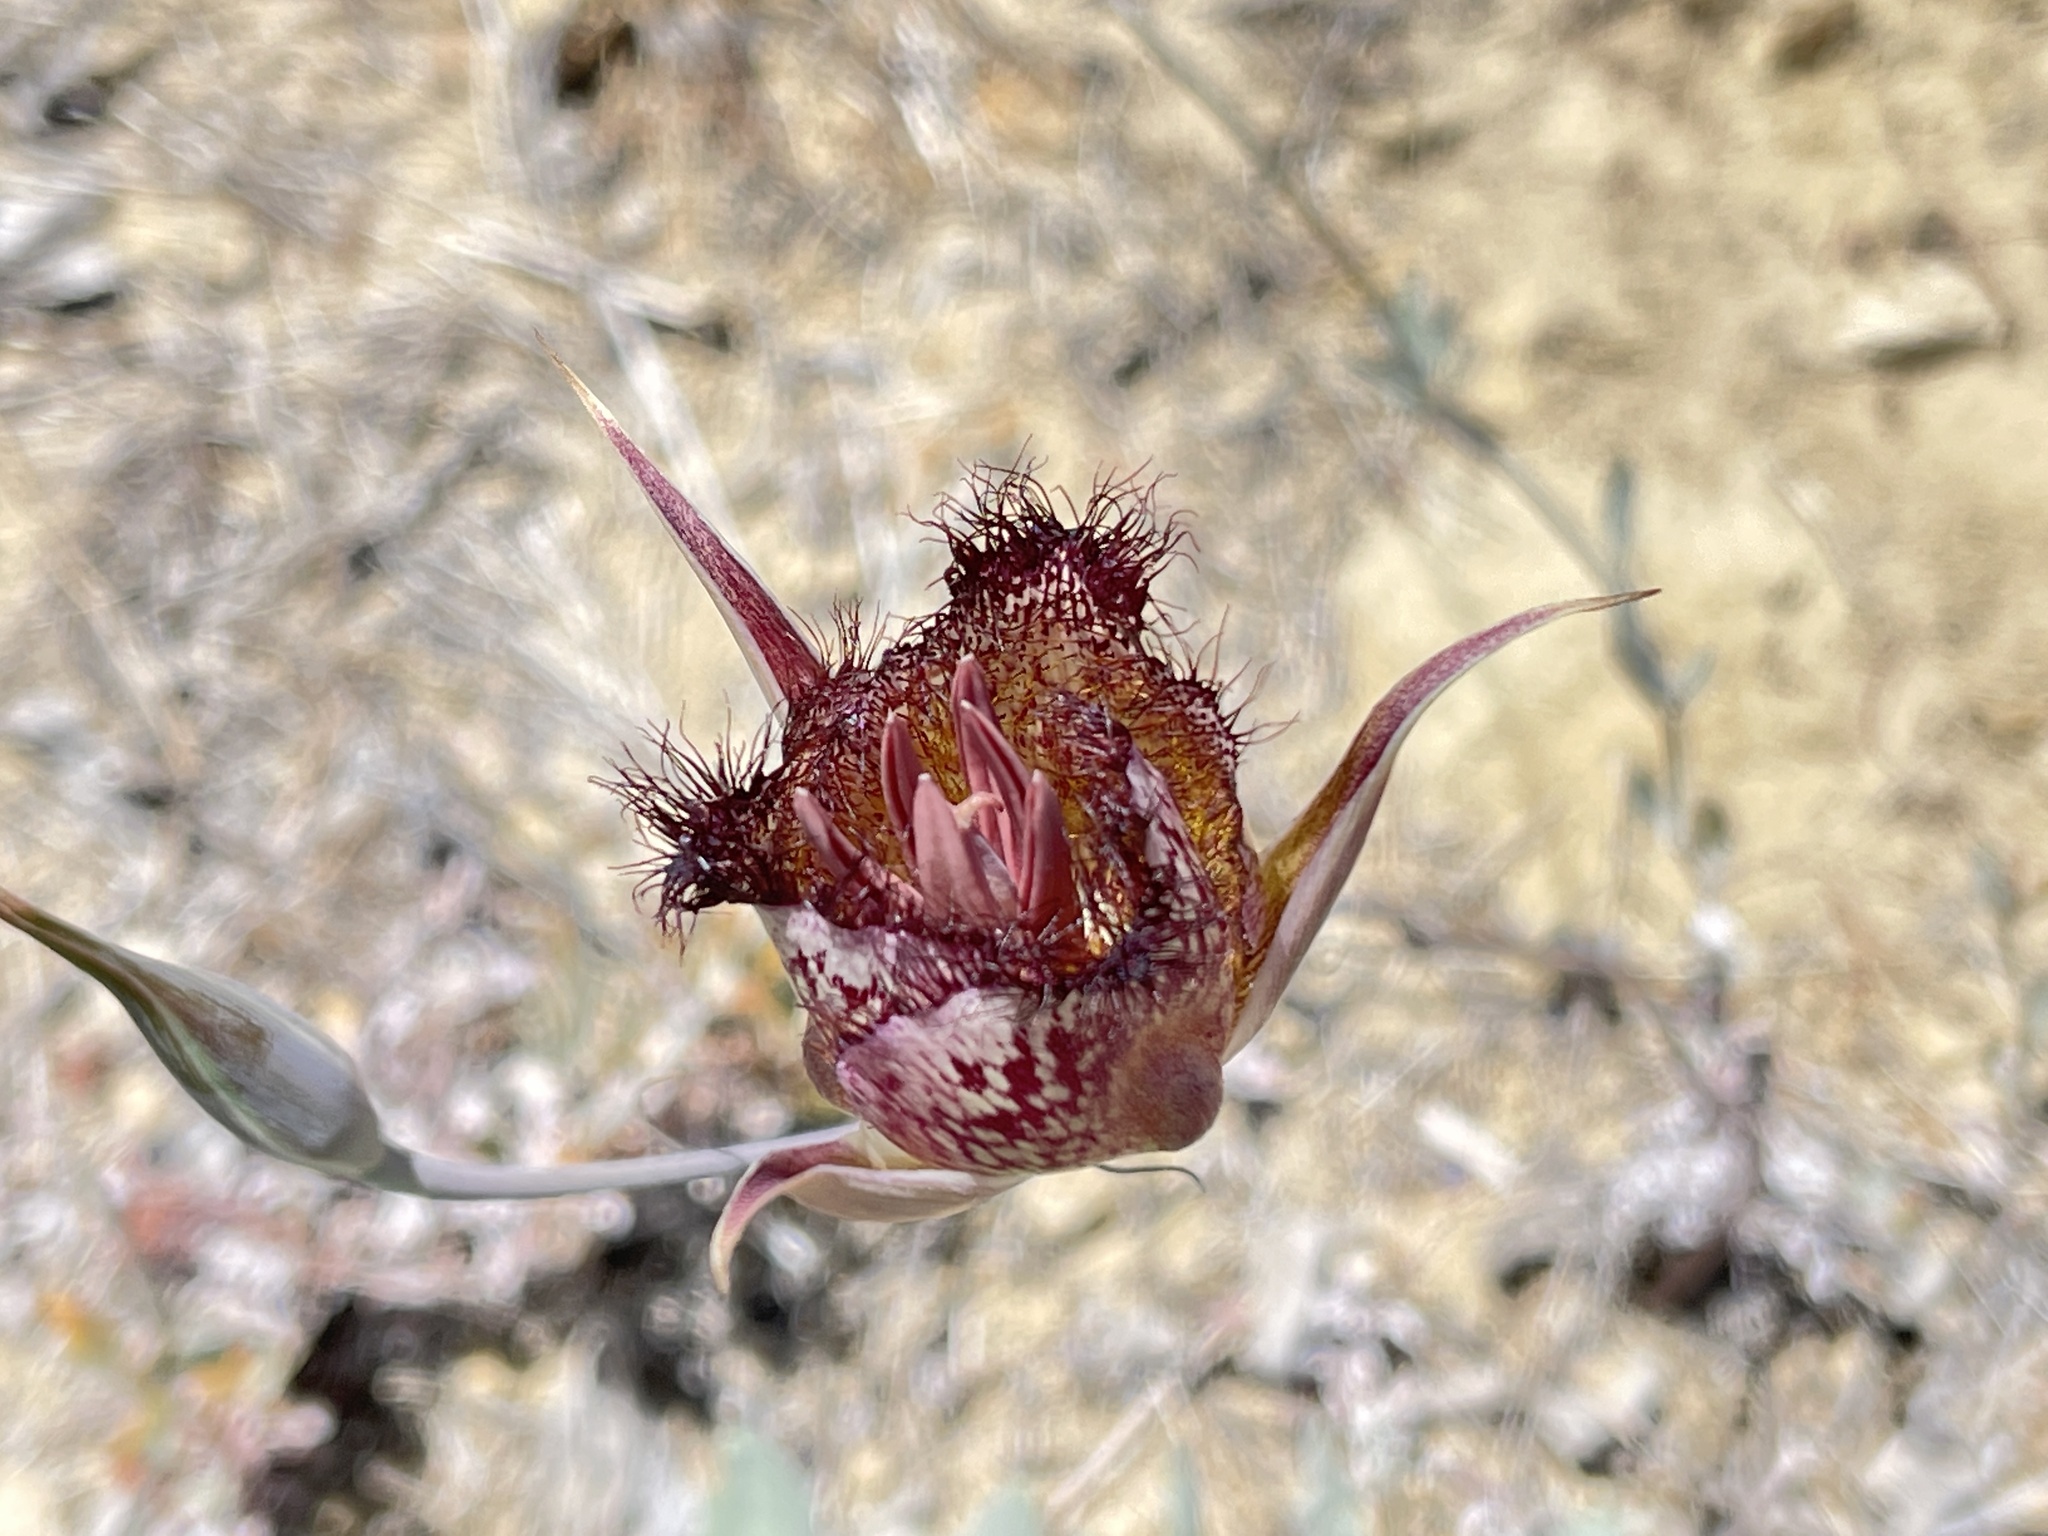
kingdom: Plantae
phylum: Tracheophyta
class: Liliopsida
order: Liliales
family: Liliaceae
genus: Calochortus
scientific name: Calochortus fimbriatus
